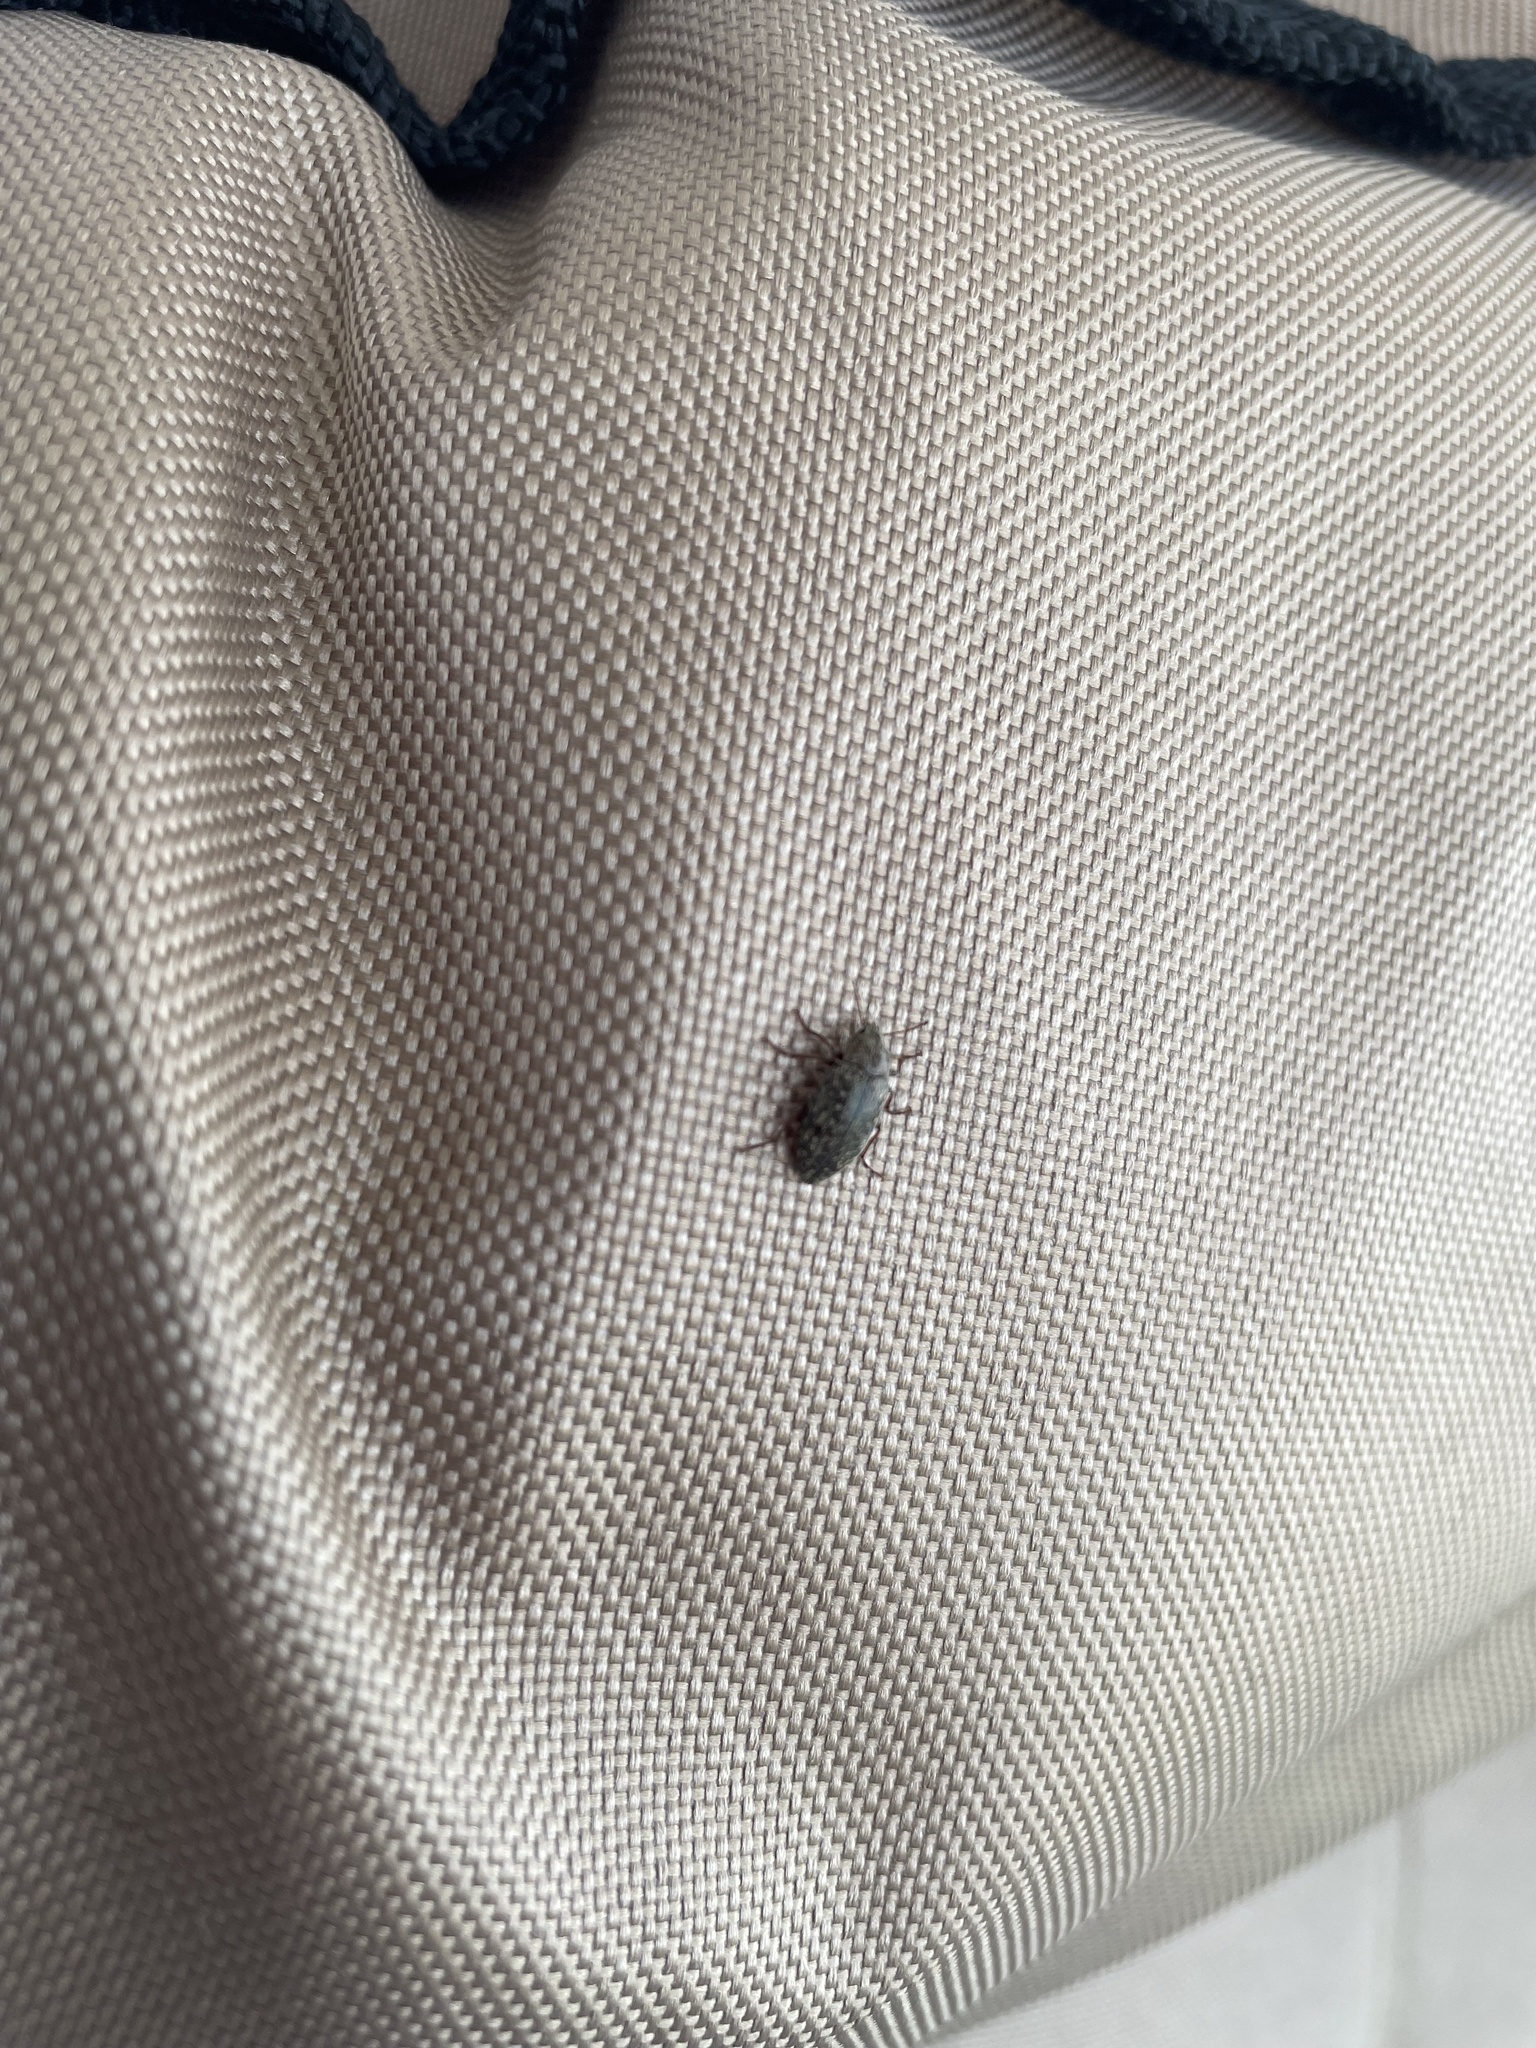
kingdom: Animalia
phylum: Arthropoda
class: Insecta
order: Coleoptera
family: Tenebrionidae
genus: Epitragodes
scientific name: Epitragodes tomentosus
